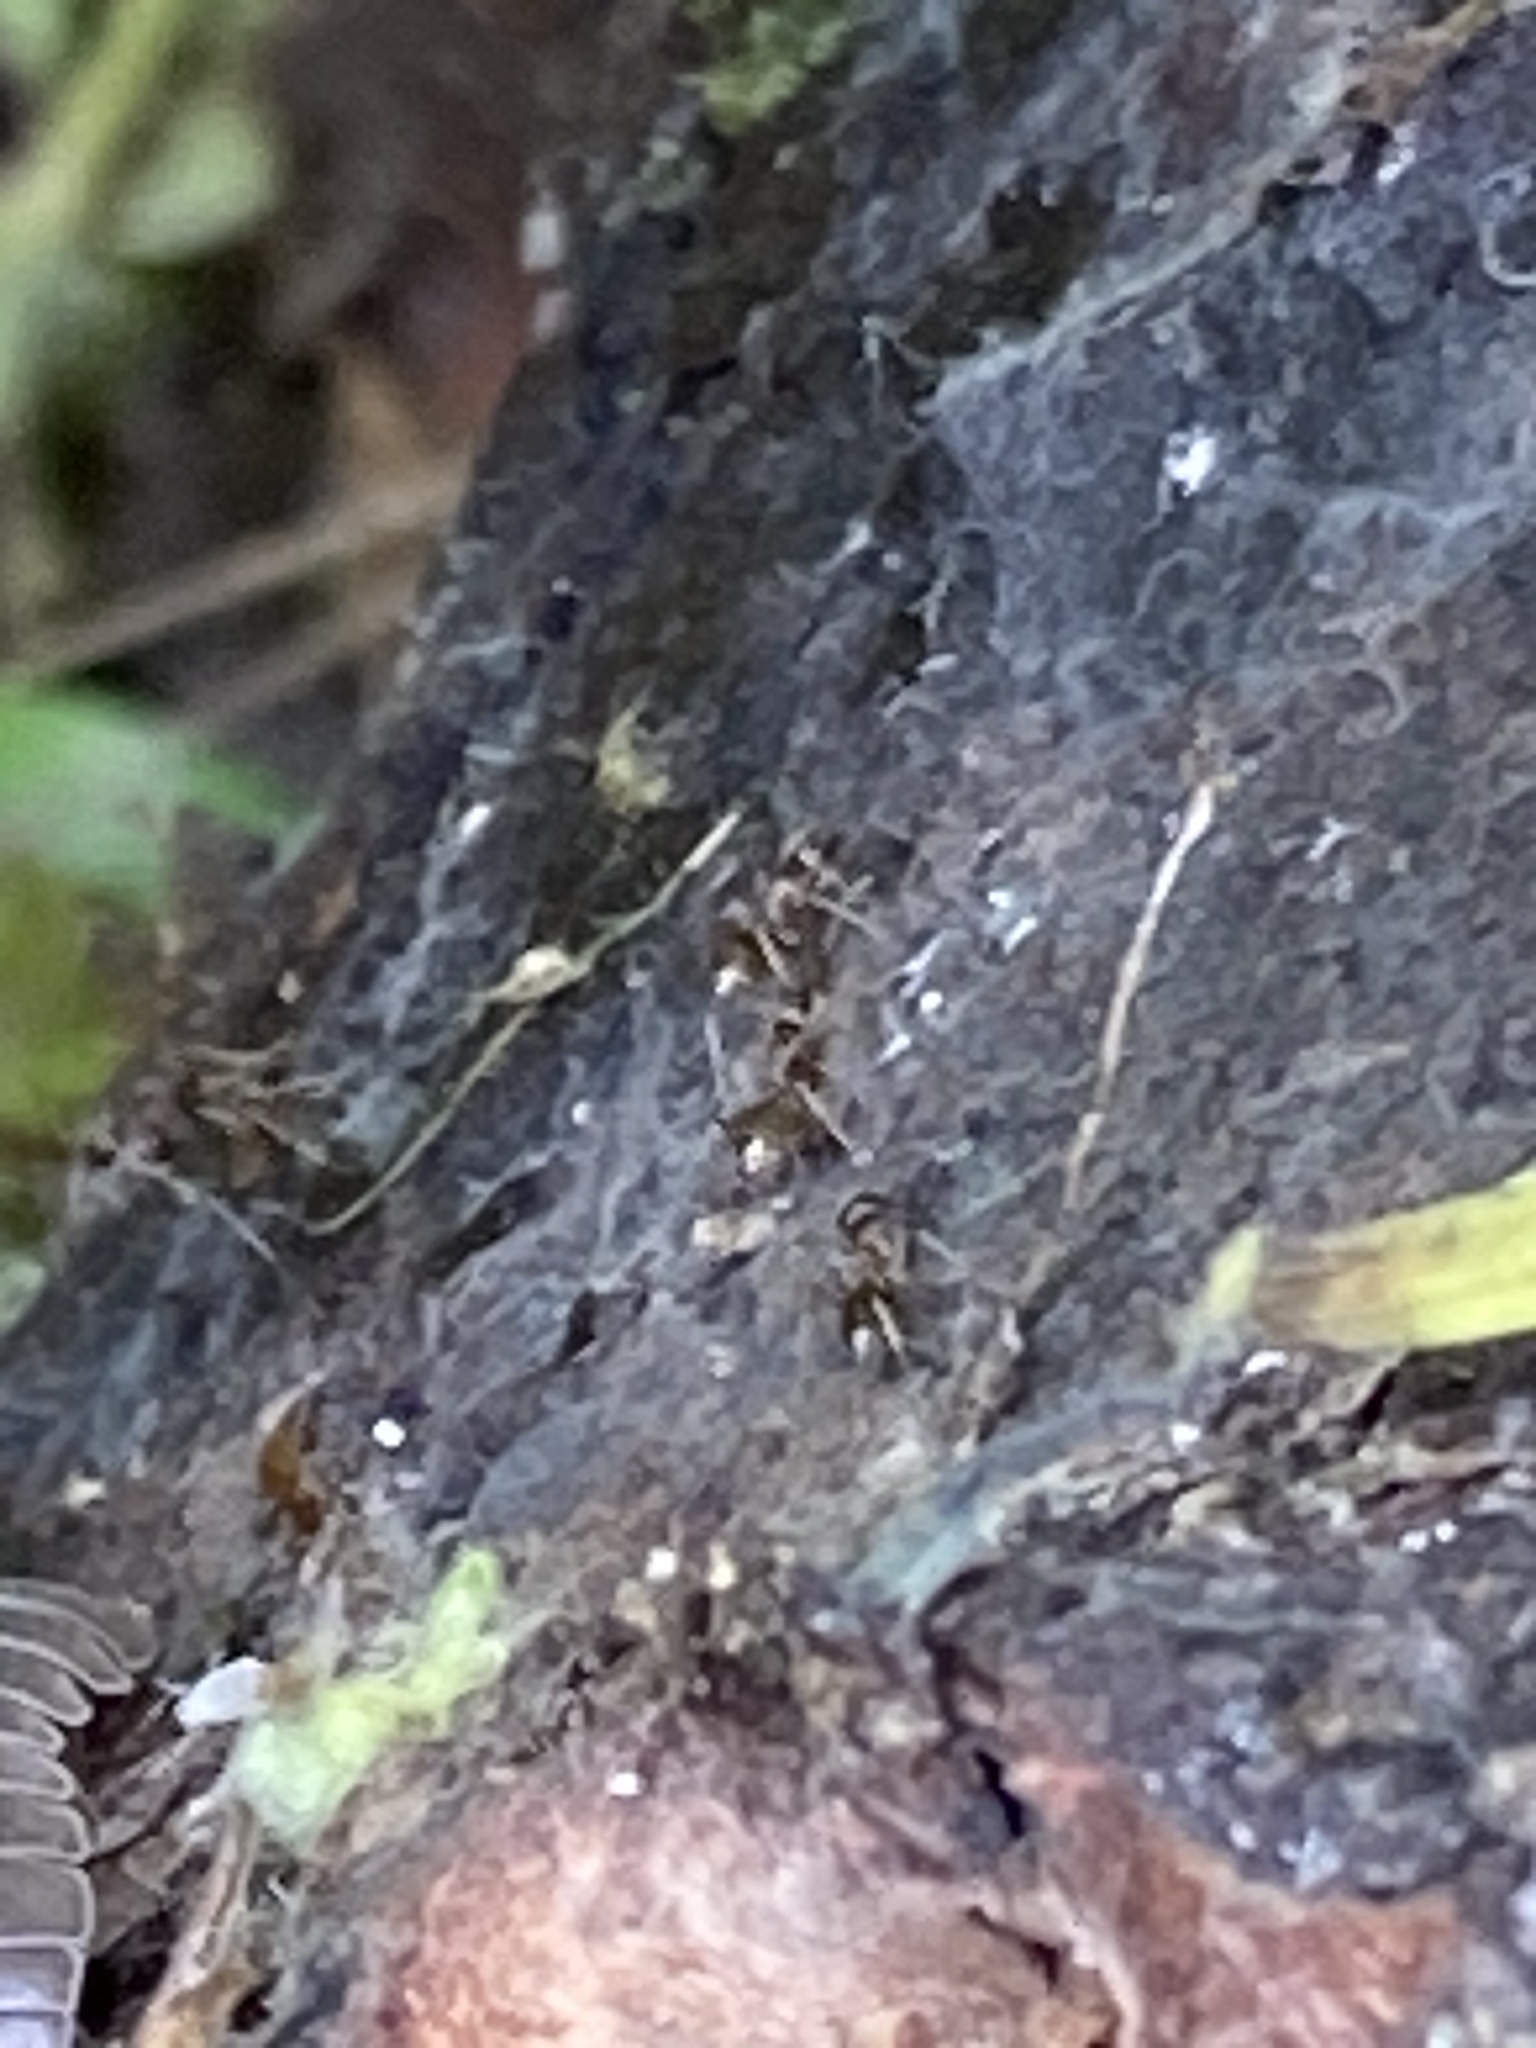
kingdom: Animalia
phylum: Arthropoda
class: Insecta
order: Hymenoptera
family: Formicidae
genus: Linepithema
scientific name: Linepithema humile
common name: Argentine ant
